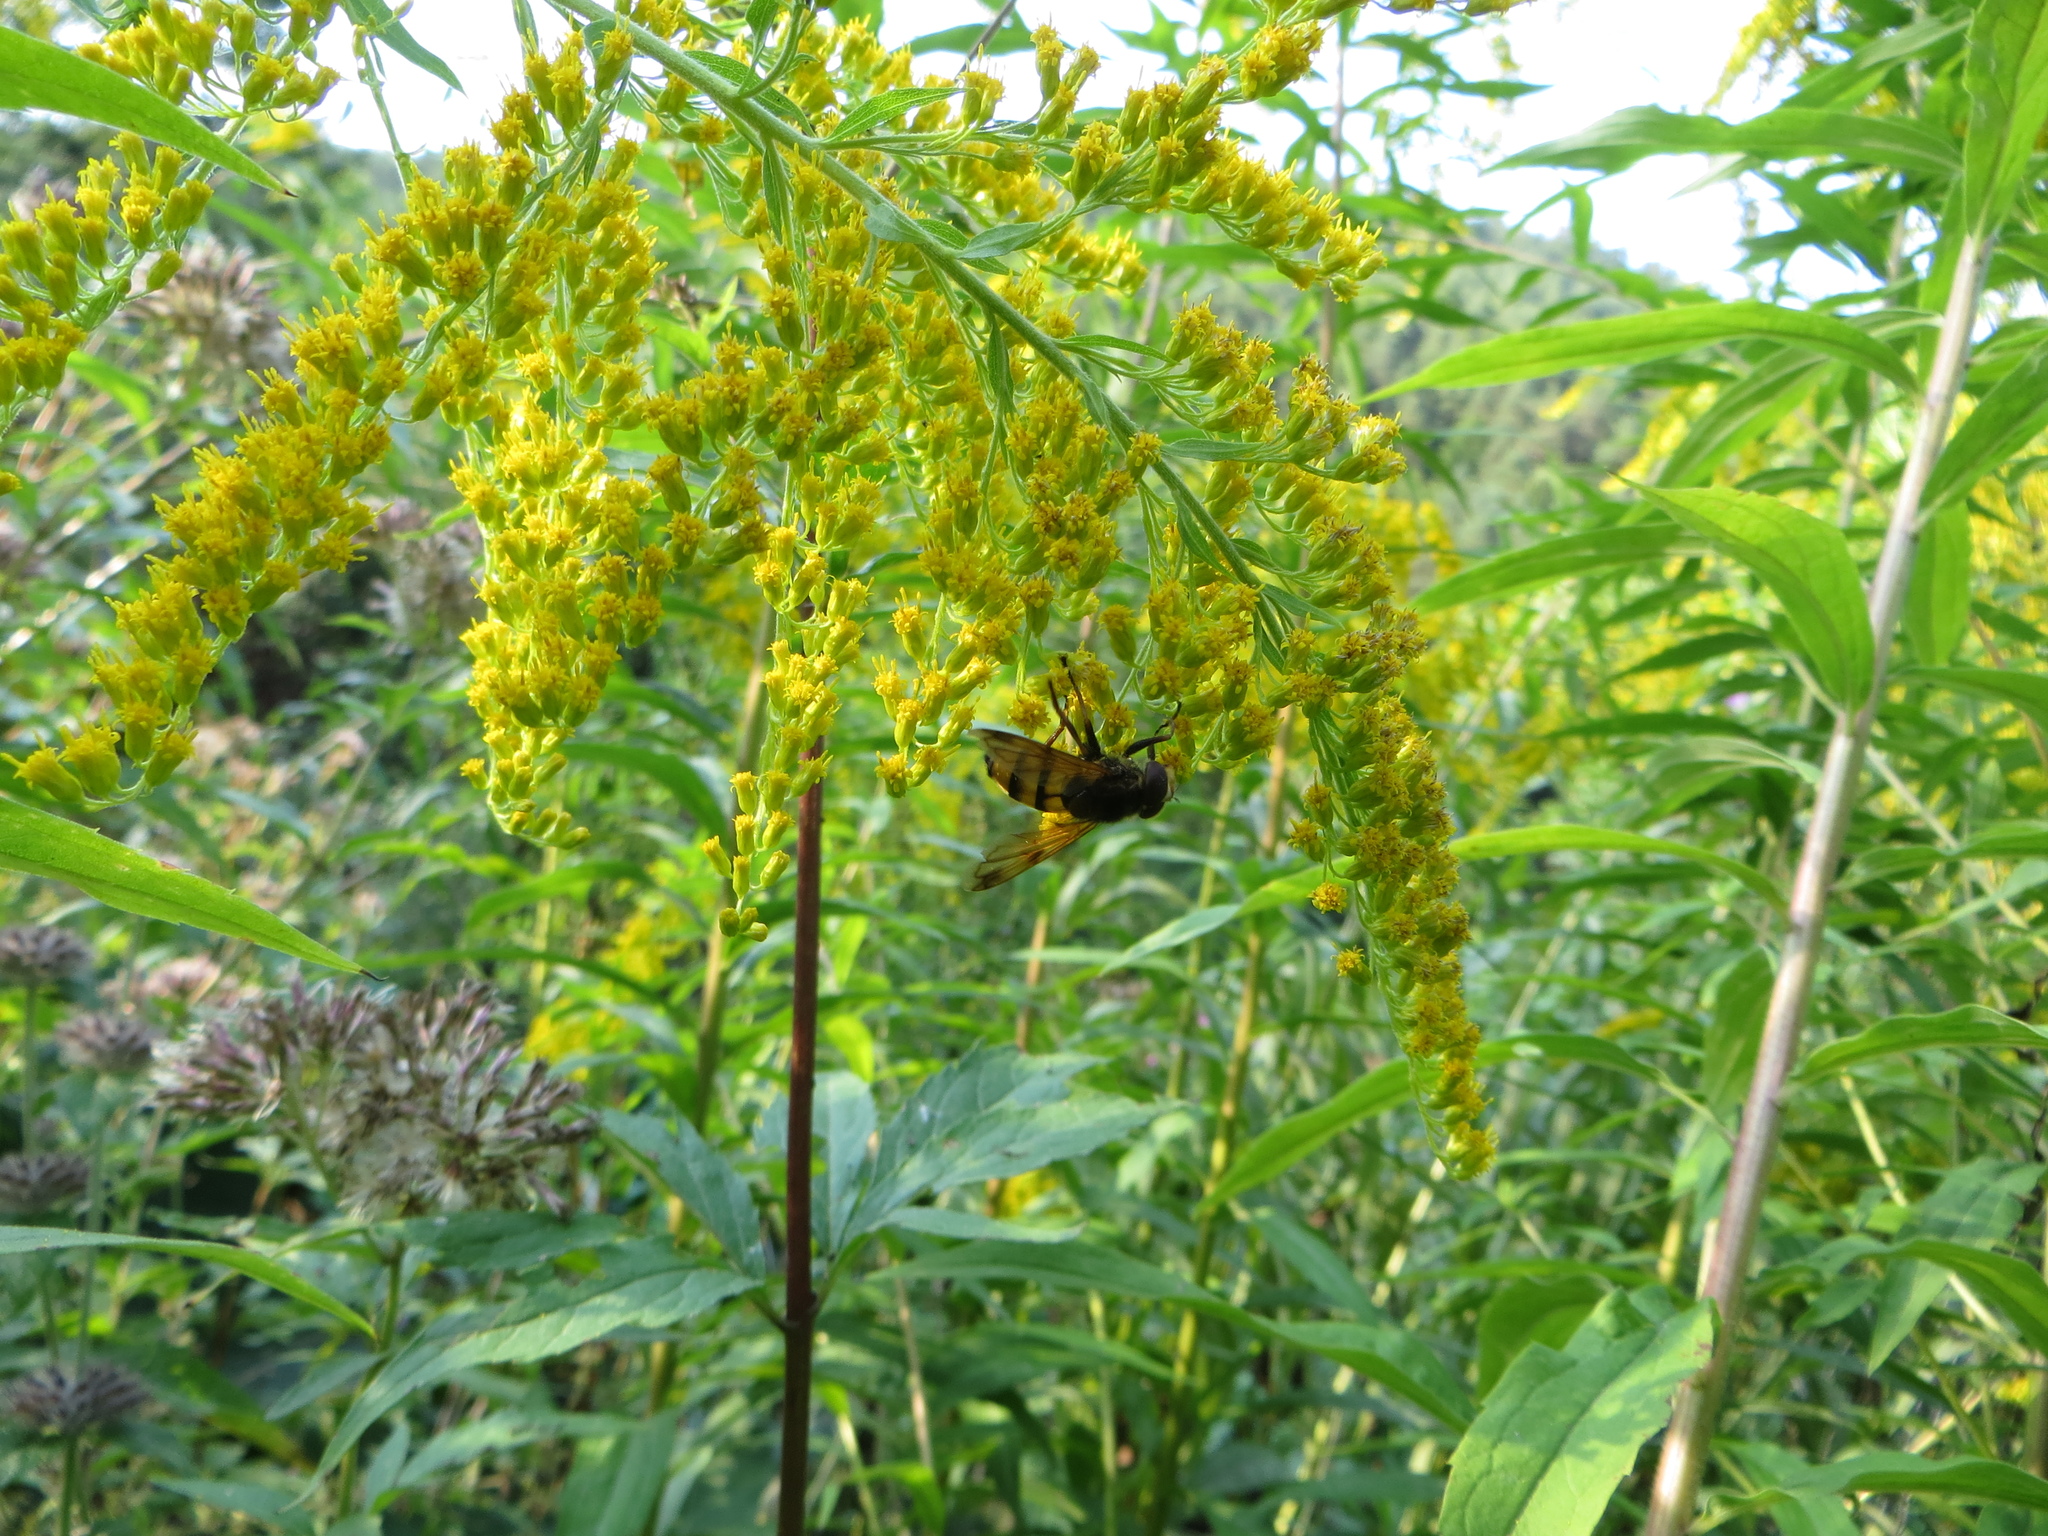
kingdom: Animalia
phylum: Arthropoda
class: Insecta
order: Diptera
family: Syrphidae
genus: Volucella
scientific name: Volucella inanis
